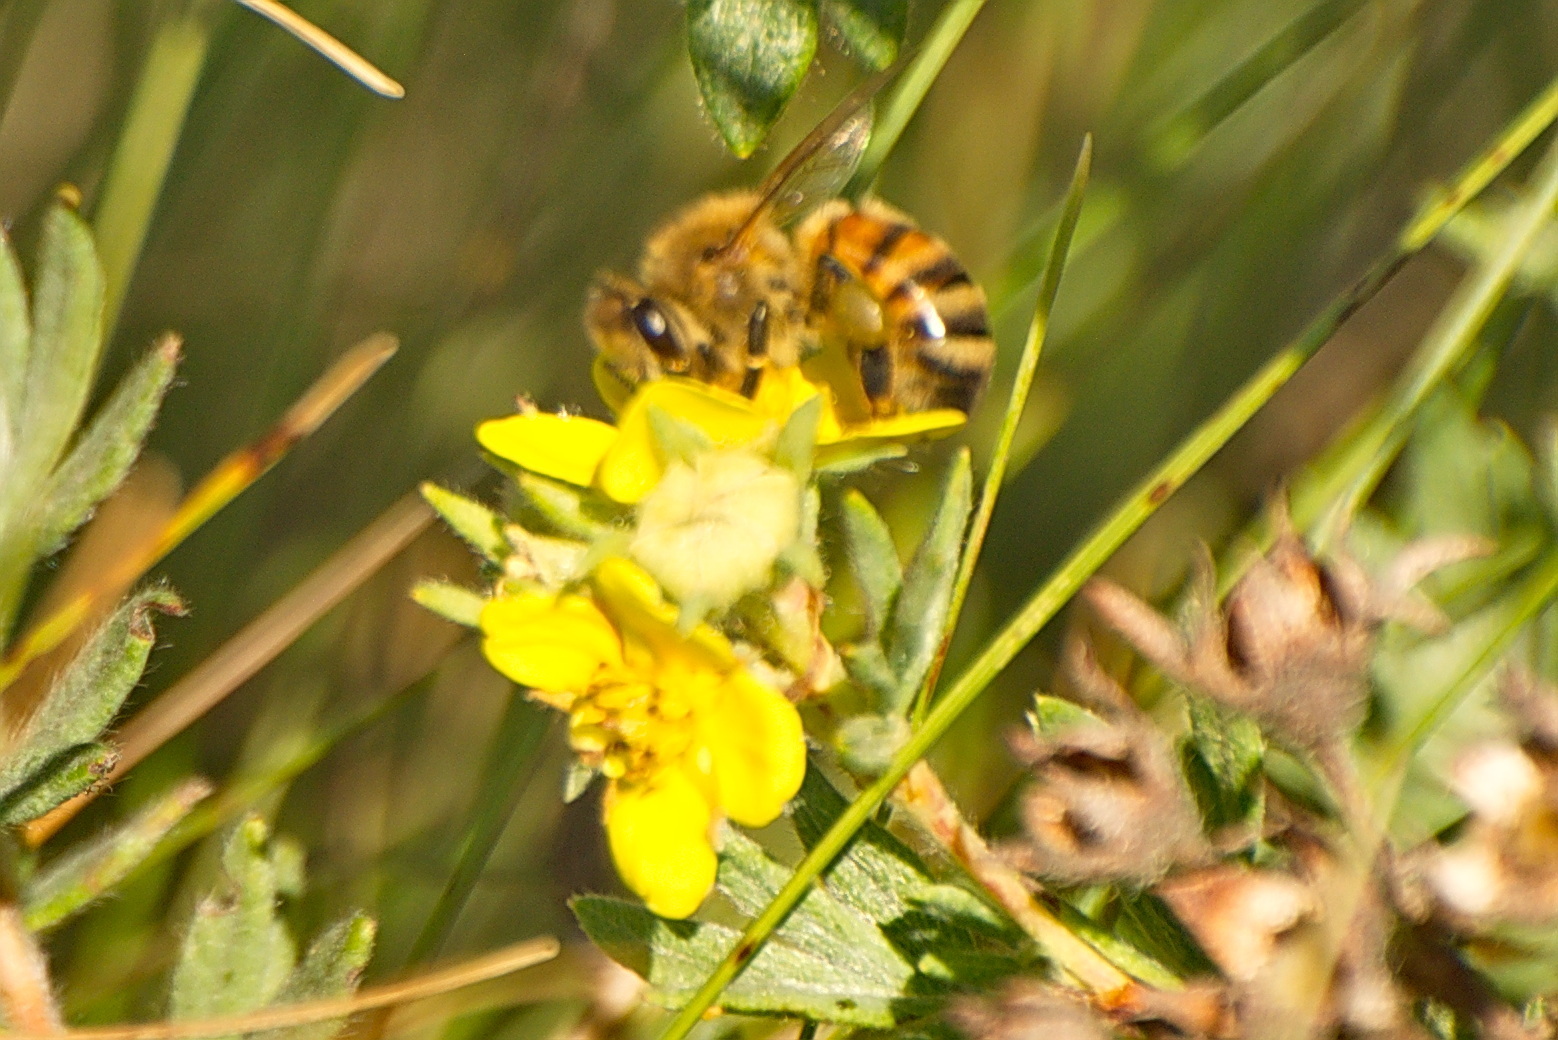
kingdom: Animalia
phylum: Arthropoda
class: Insecta
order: Hymenoptera
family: Apidae
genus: Apis
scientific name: Apis mellifera
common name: Honey bee
